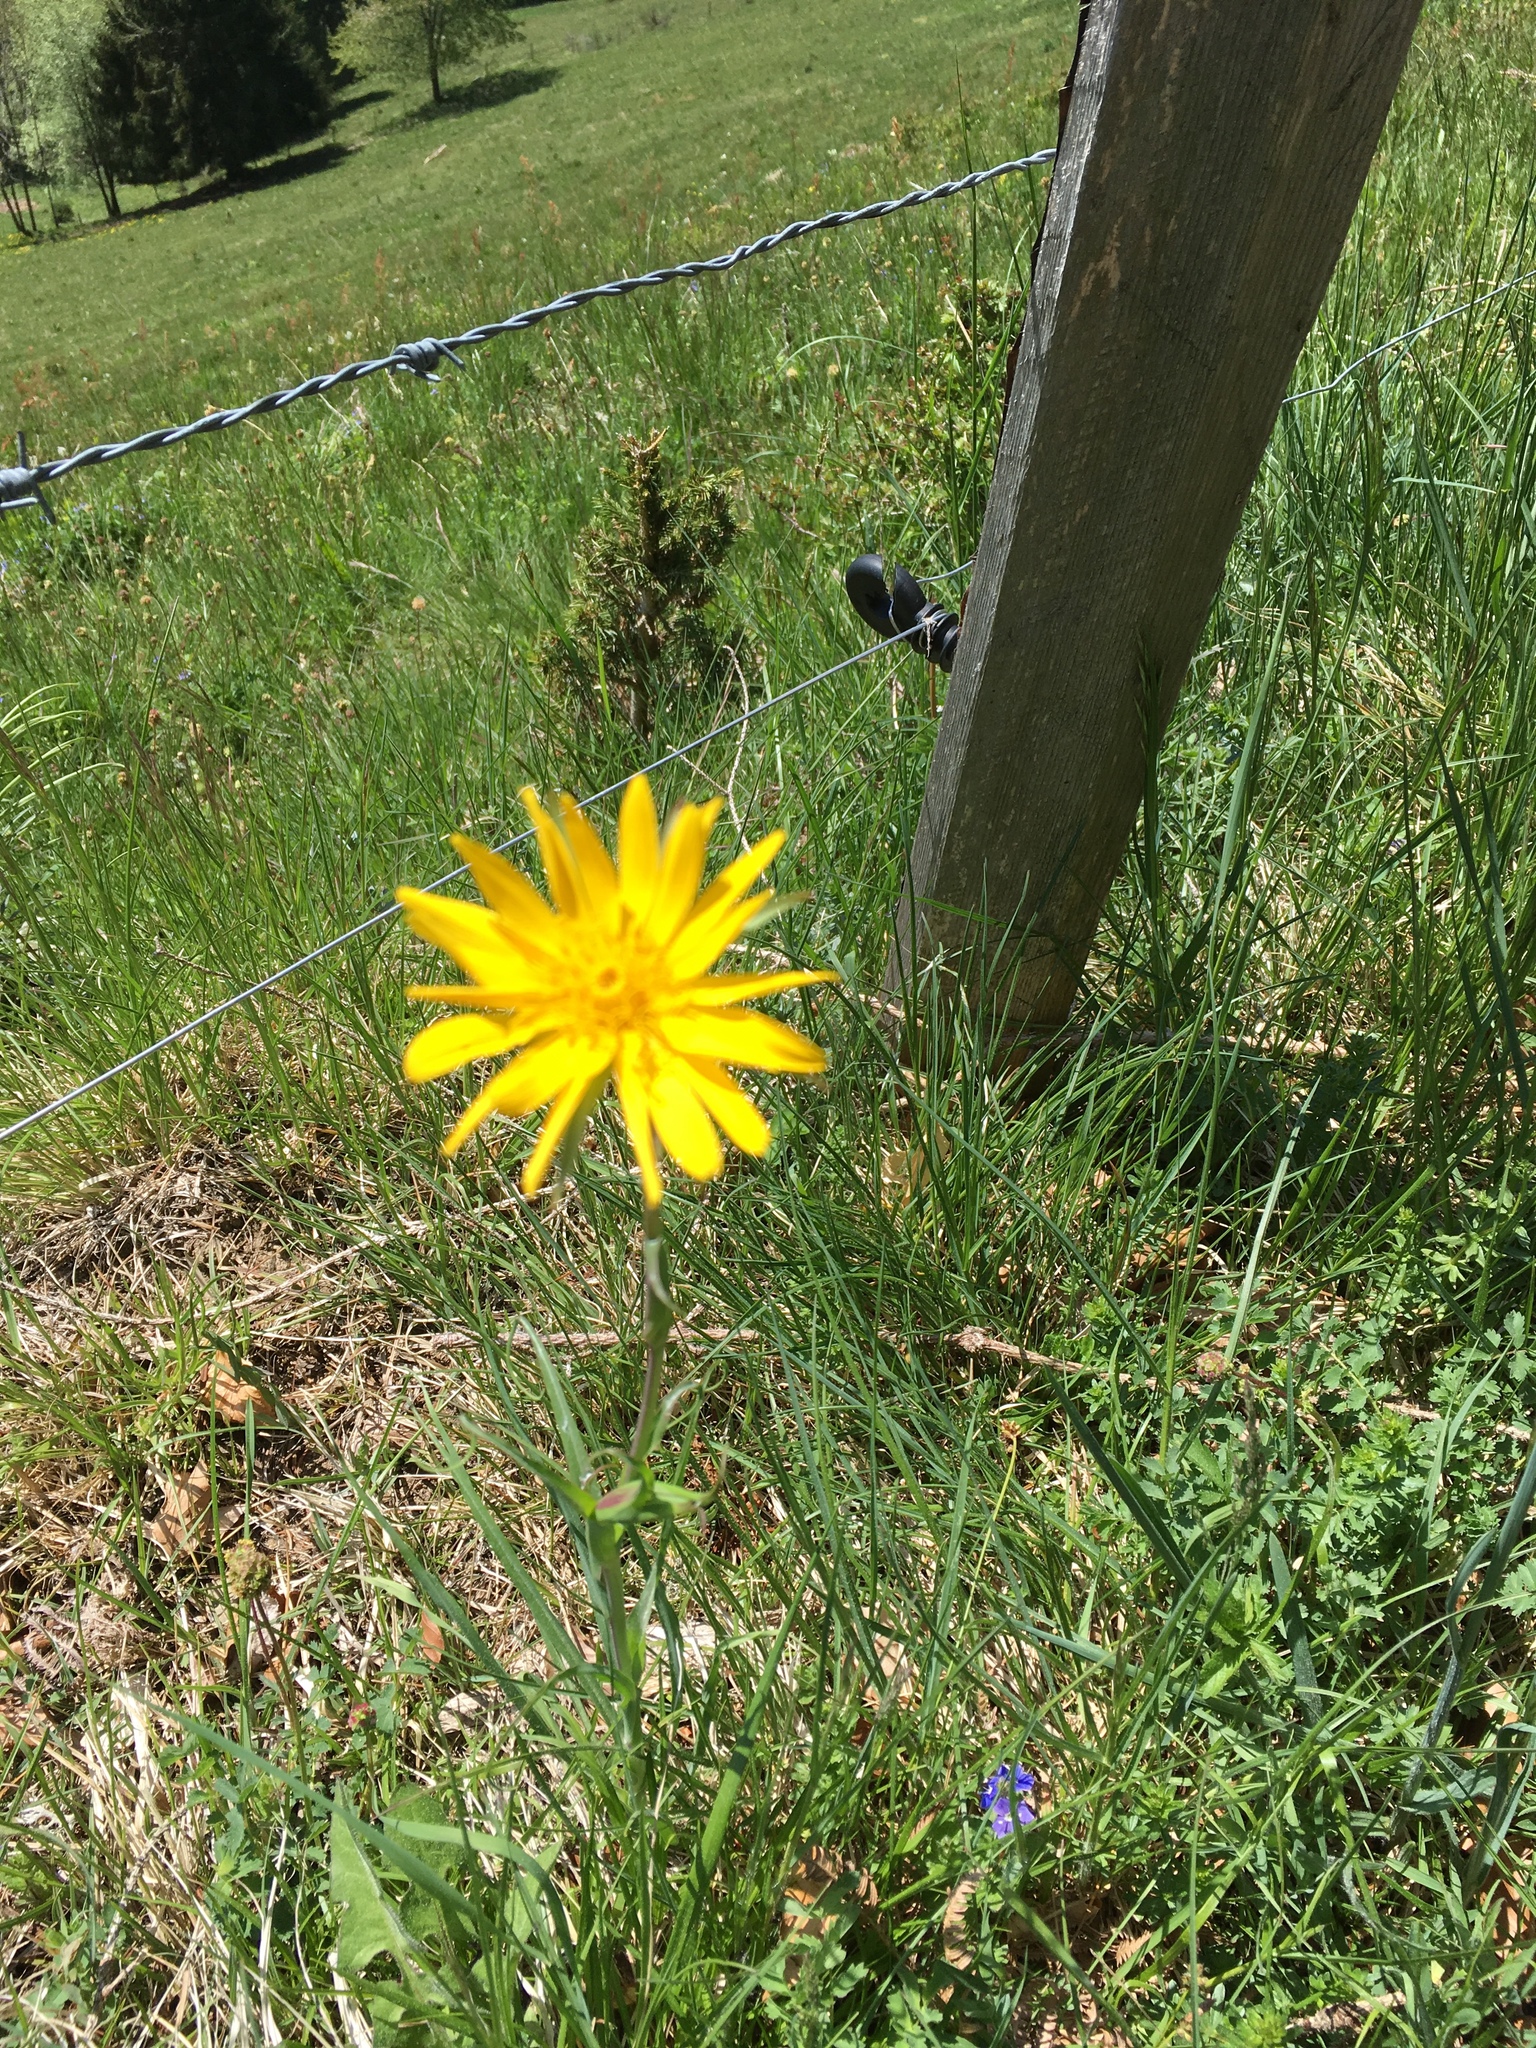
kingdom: Plantae
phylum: Tracheophyta
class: Magnoliopsida
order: Asterales
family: Asteraceae
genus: Tragopogon
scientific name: Tragopogon pratensis
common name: Goat's-beard
